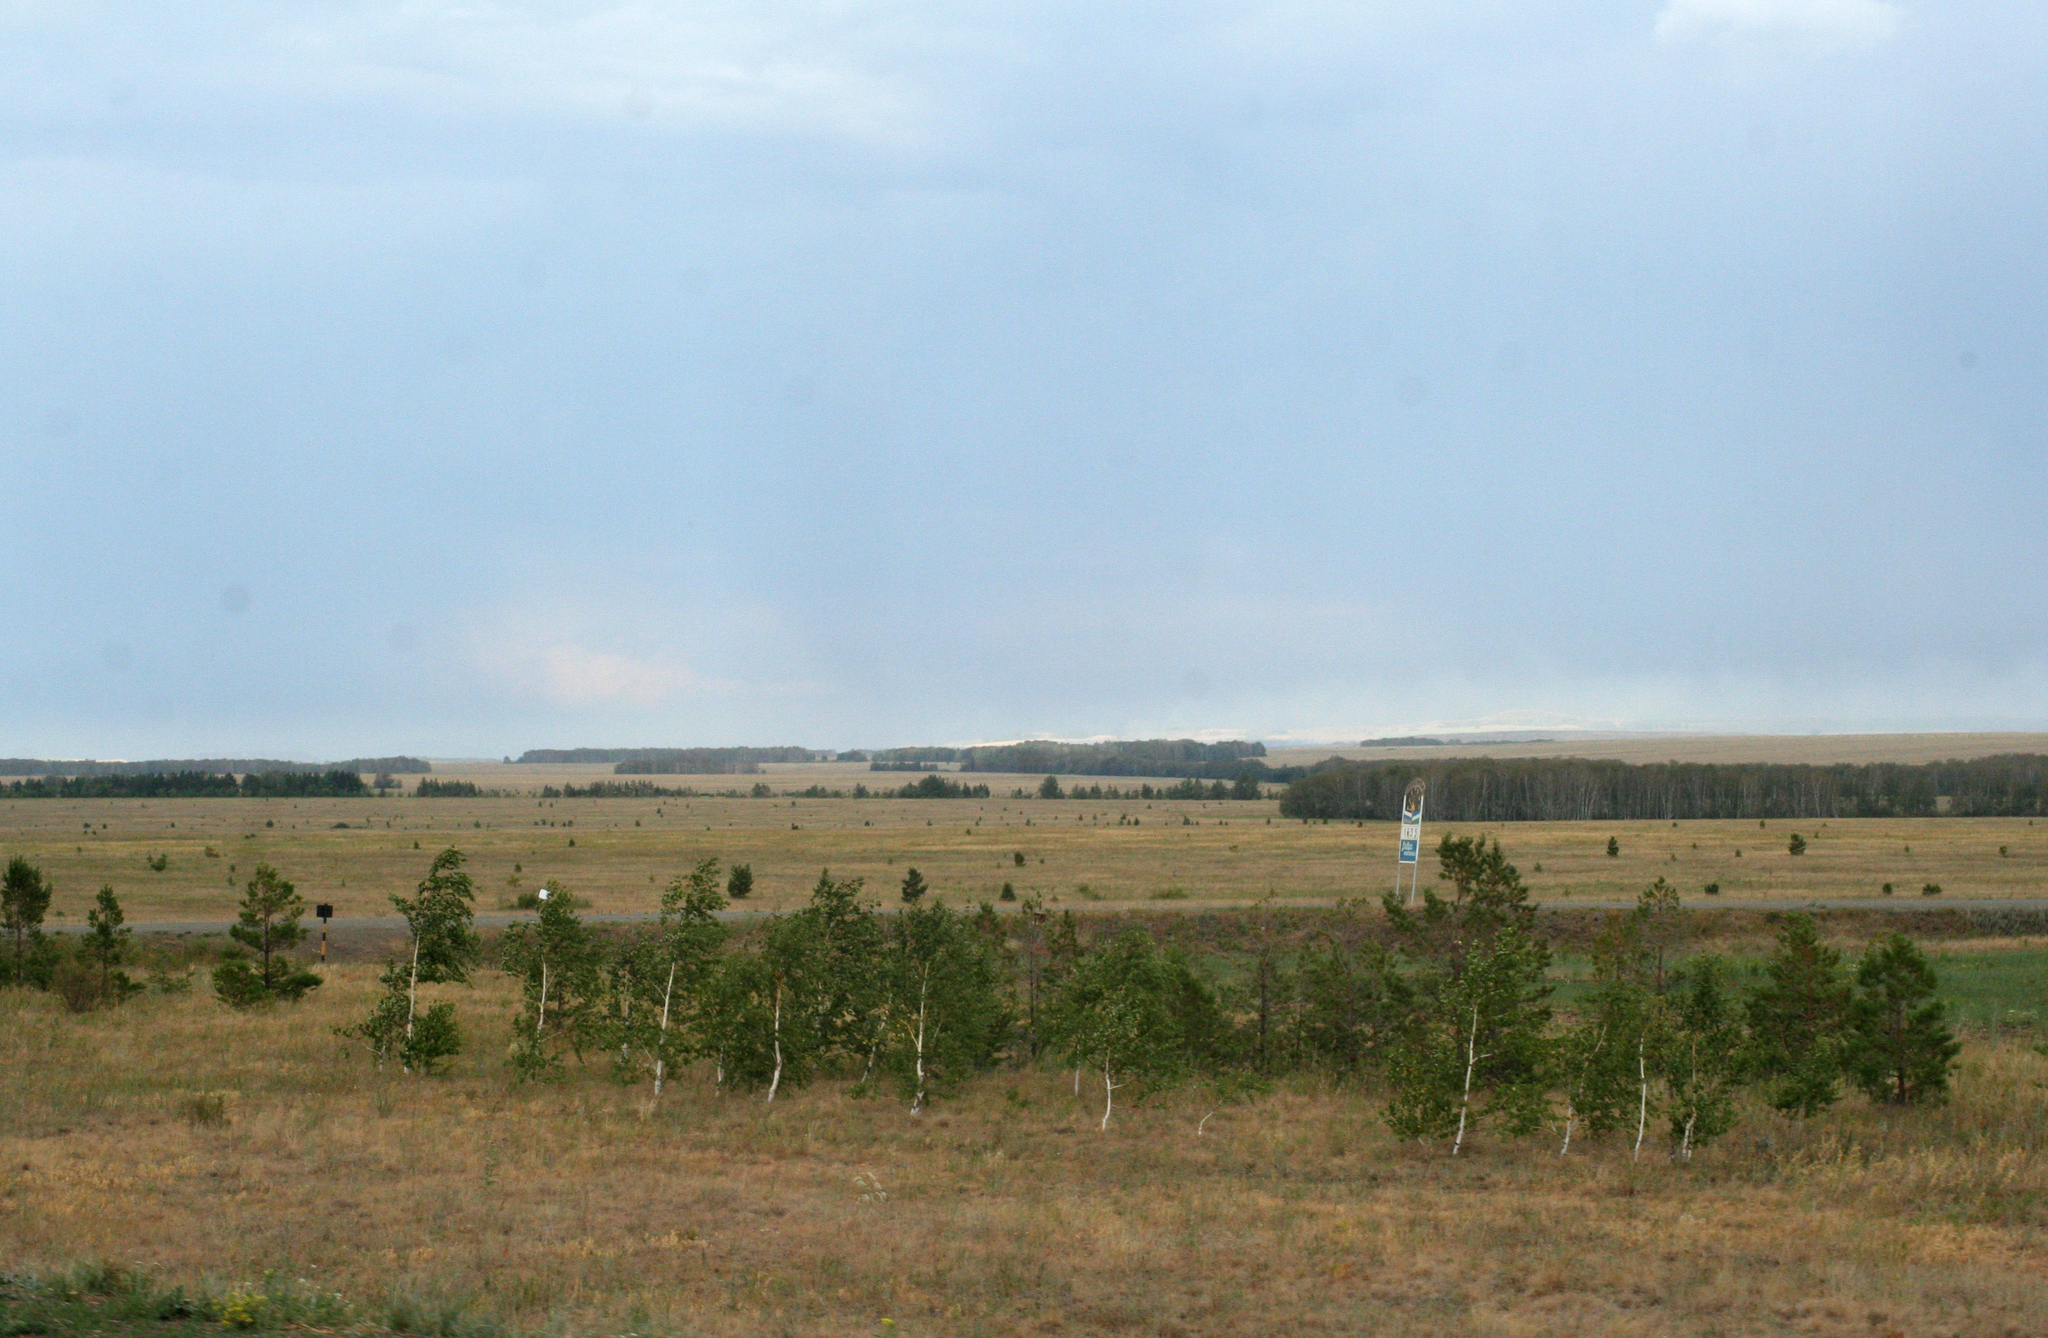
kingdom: Plantae
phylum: Tracheophyta
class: Magnoliopsida
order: Fagales
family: Betulaceae
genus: Betula
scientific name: Betula pendula
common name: Silver birch
